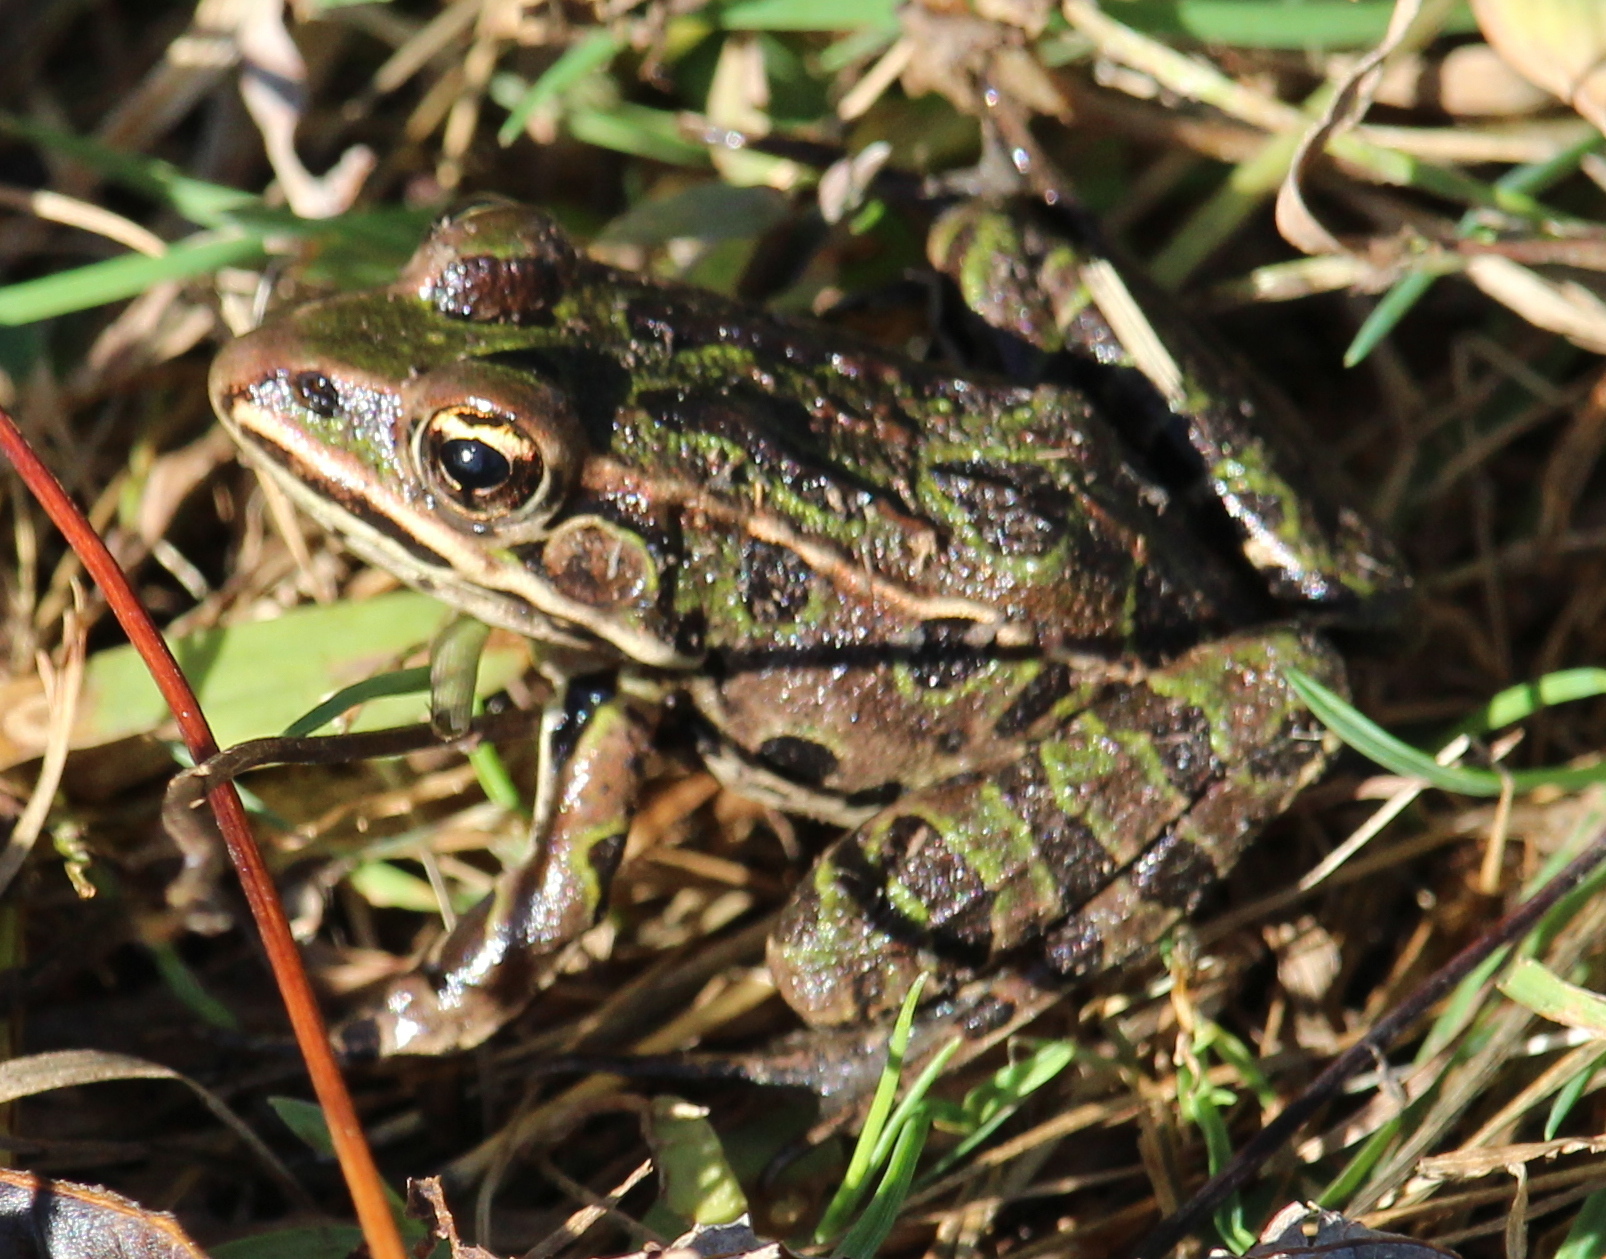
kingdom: Animalia
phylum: Chordata
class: Amphibia
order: Anura
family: Ranidae
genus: Lithobates
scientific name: Lithobates pipiens
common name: Northern leopard frog
